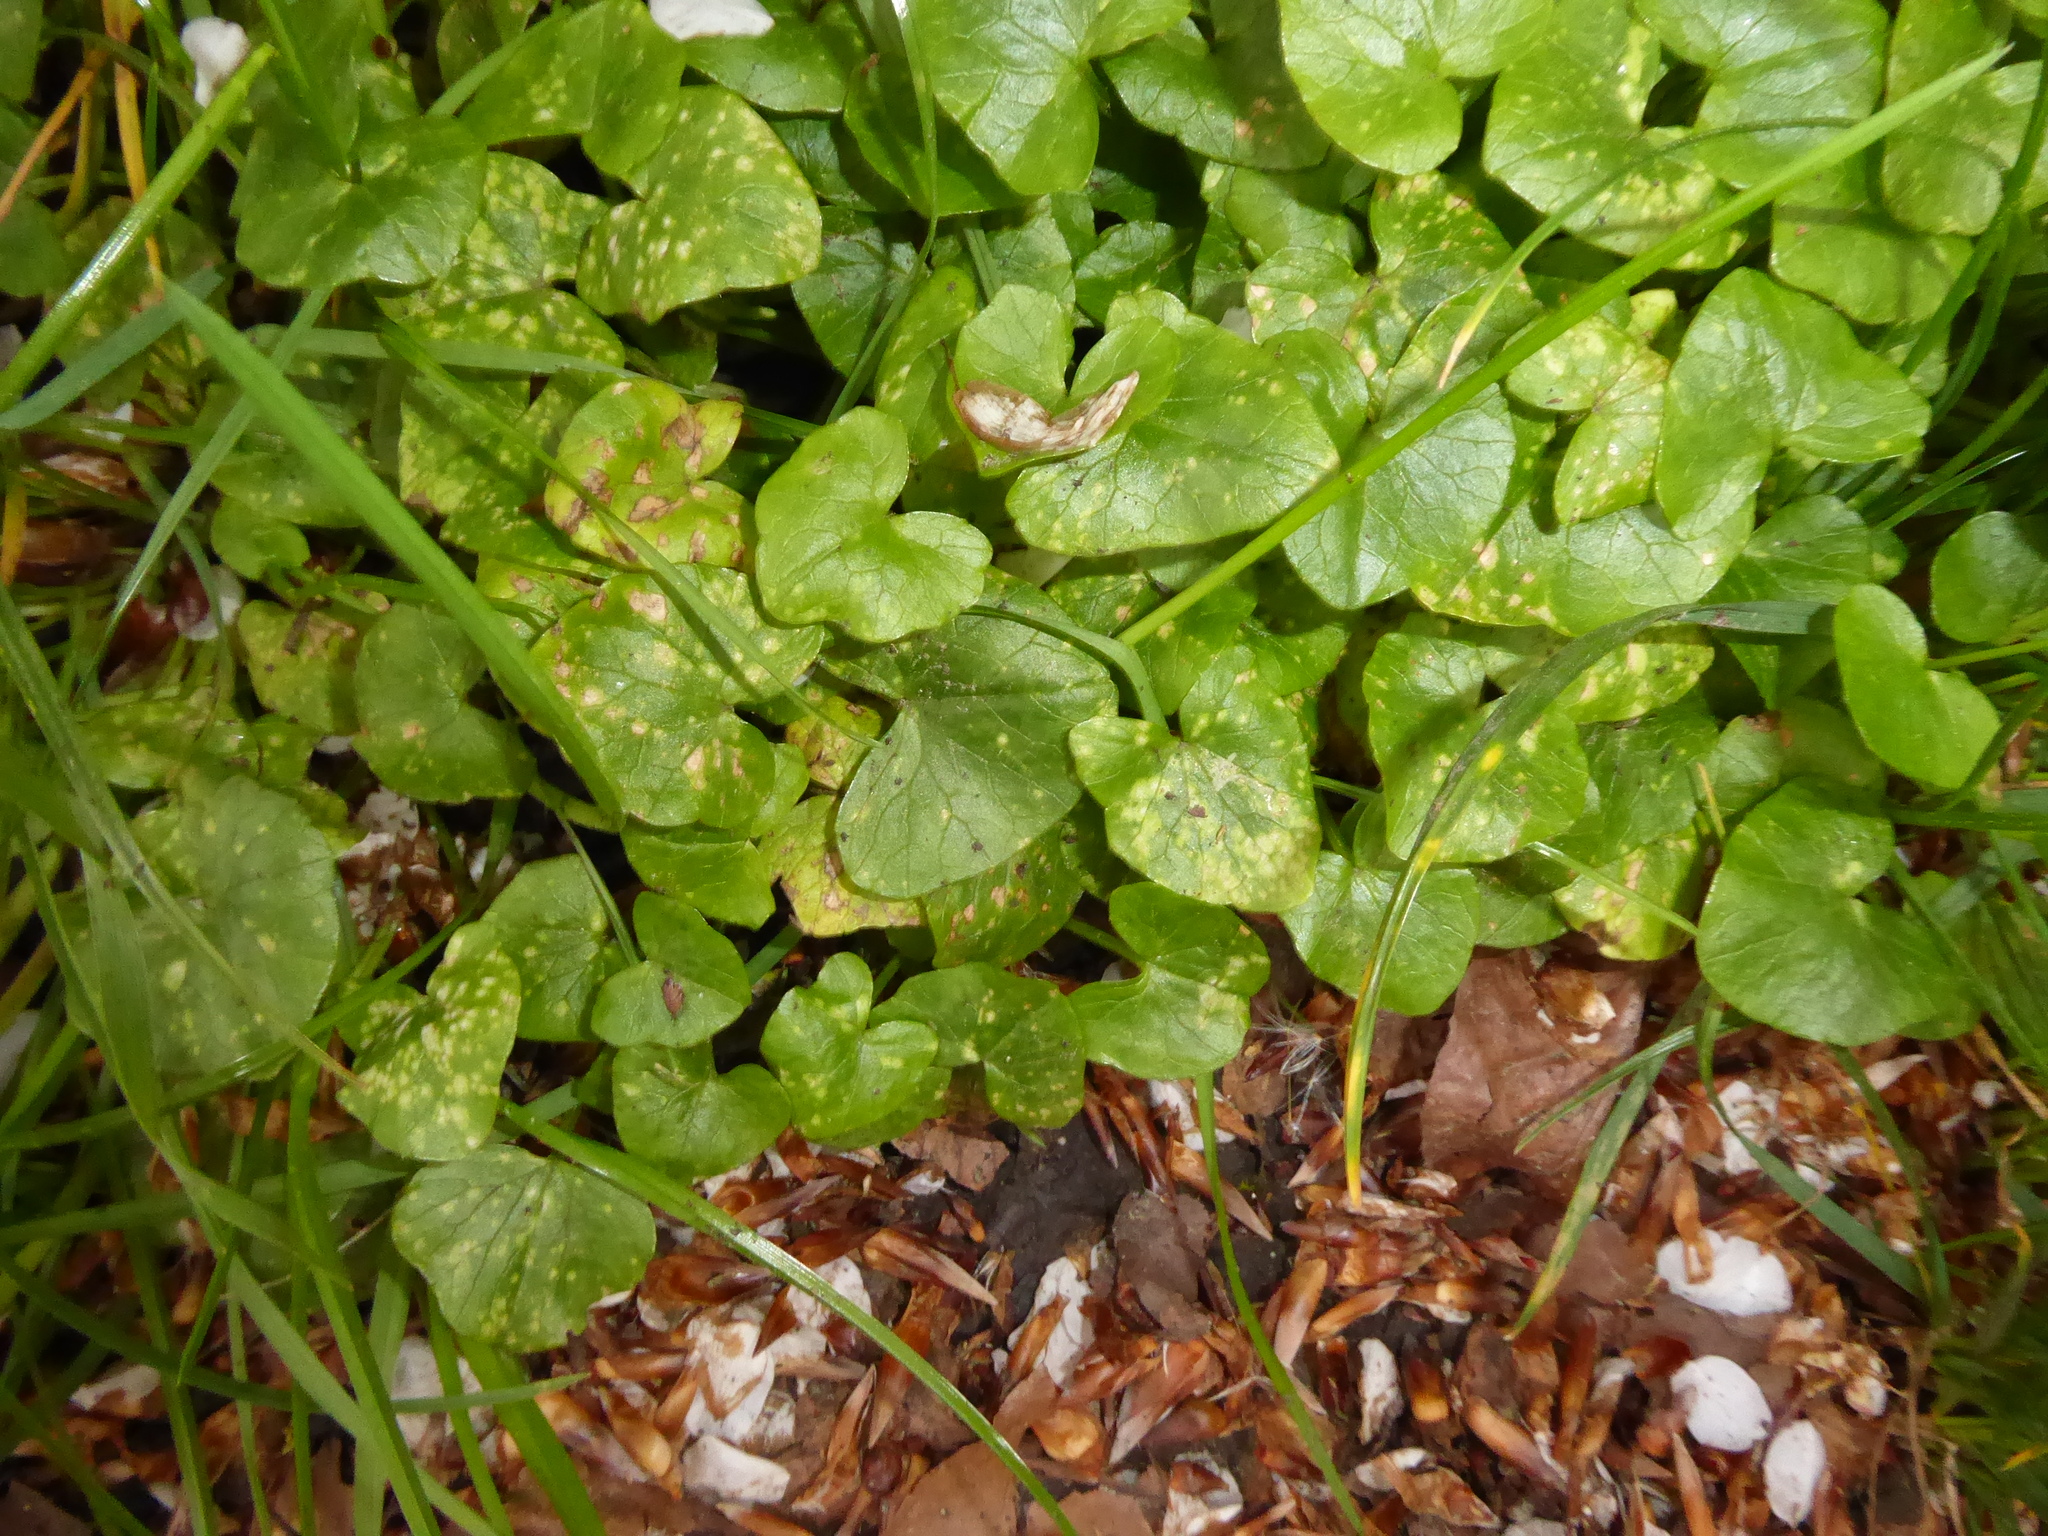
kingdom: Plantae
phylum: Tracheophyta
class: Magnoliopsida
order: Ranunculales
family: Ranunculaceae
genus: Ficaria
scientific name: Ficaria verna
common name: Lesser celandine
